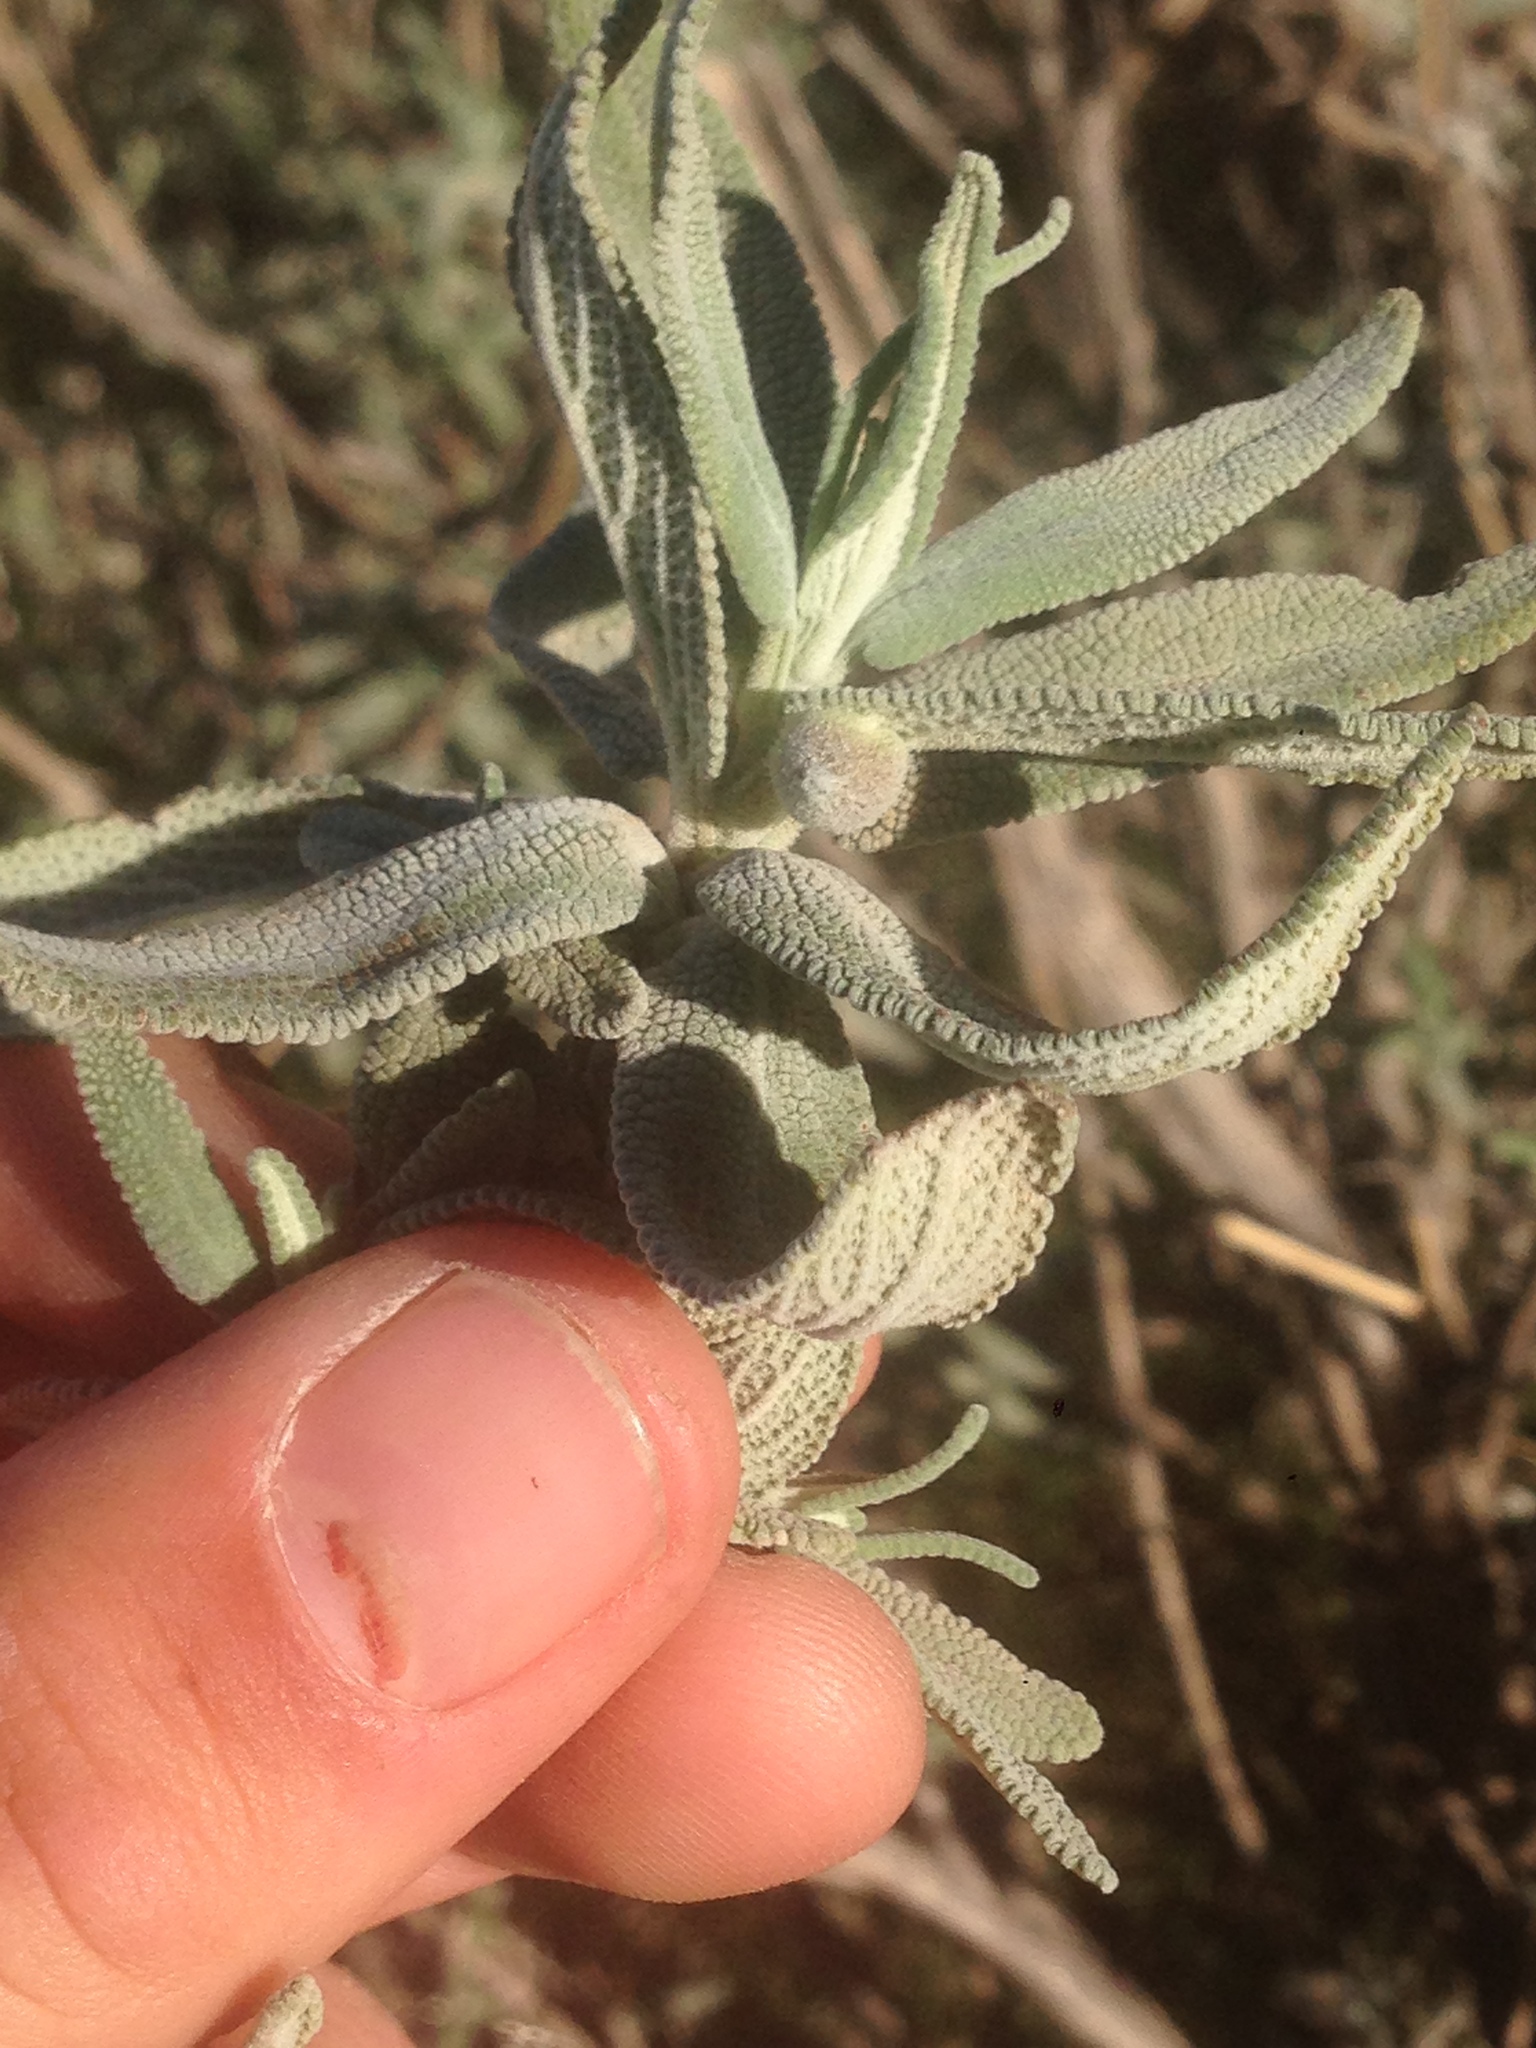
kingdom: Plantae
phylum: Tracheophyta
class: Magnoliopsida
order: Lamiales
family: Lamiaceae
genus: Salvia
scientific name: Salvia leucophylla
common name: Purple sage
